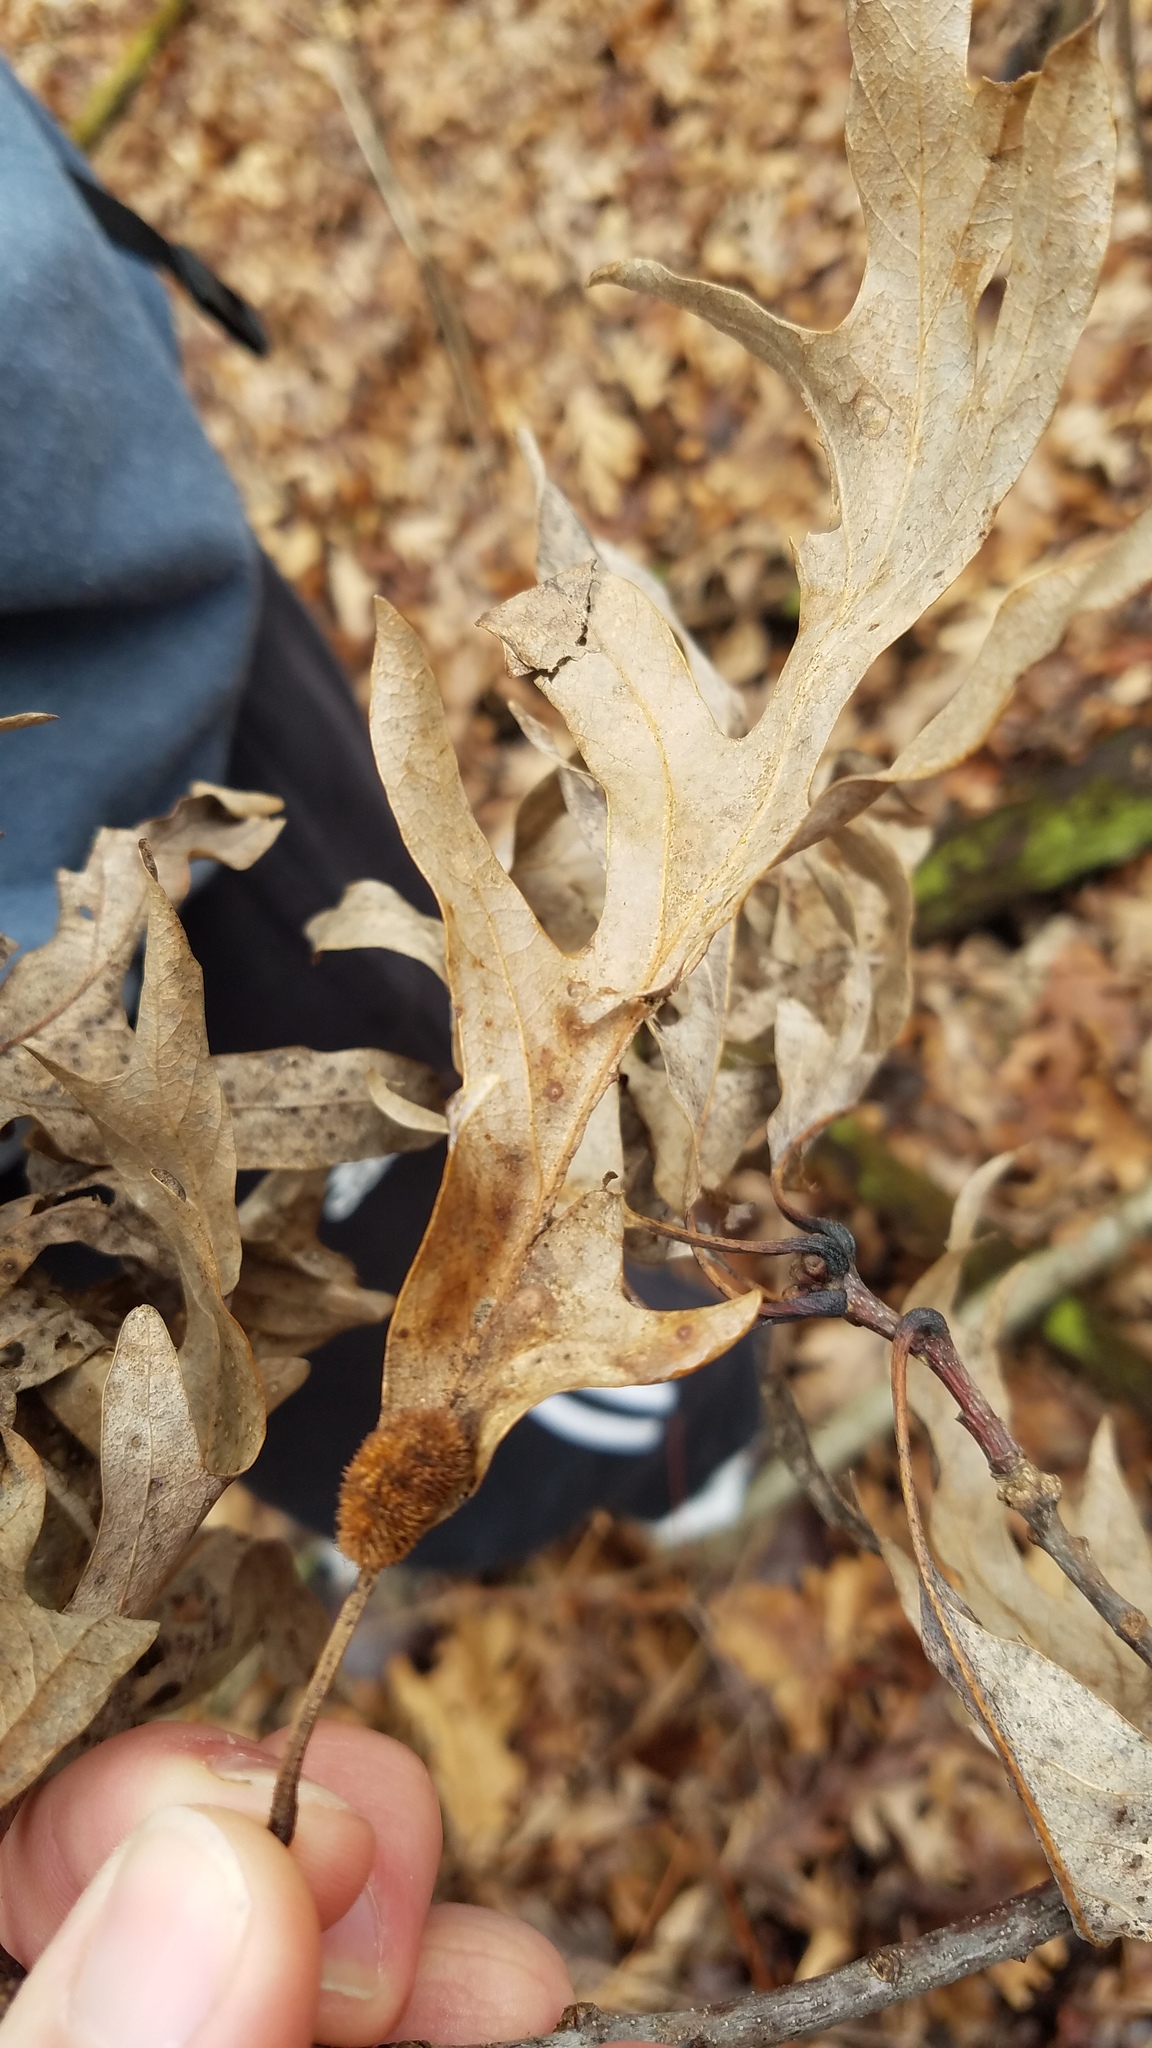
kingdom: Animalia
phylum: Arthropoda
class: Insecta
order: Hymenoptera
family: Cynipidae
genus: Acraspis
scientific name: Acraspis erinacei
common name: Hedgehog gall wasp
